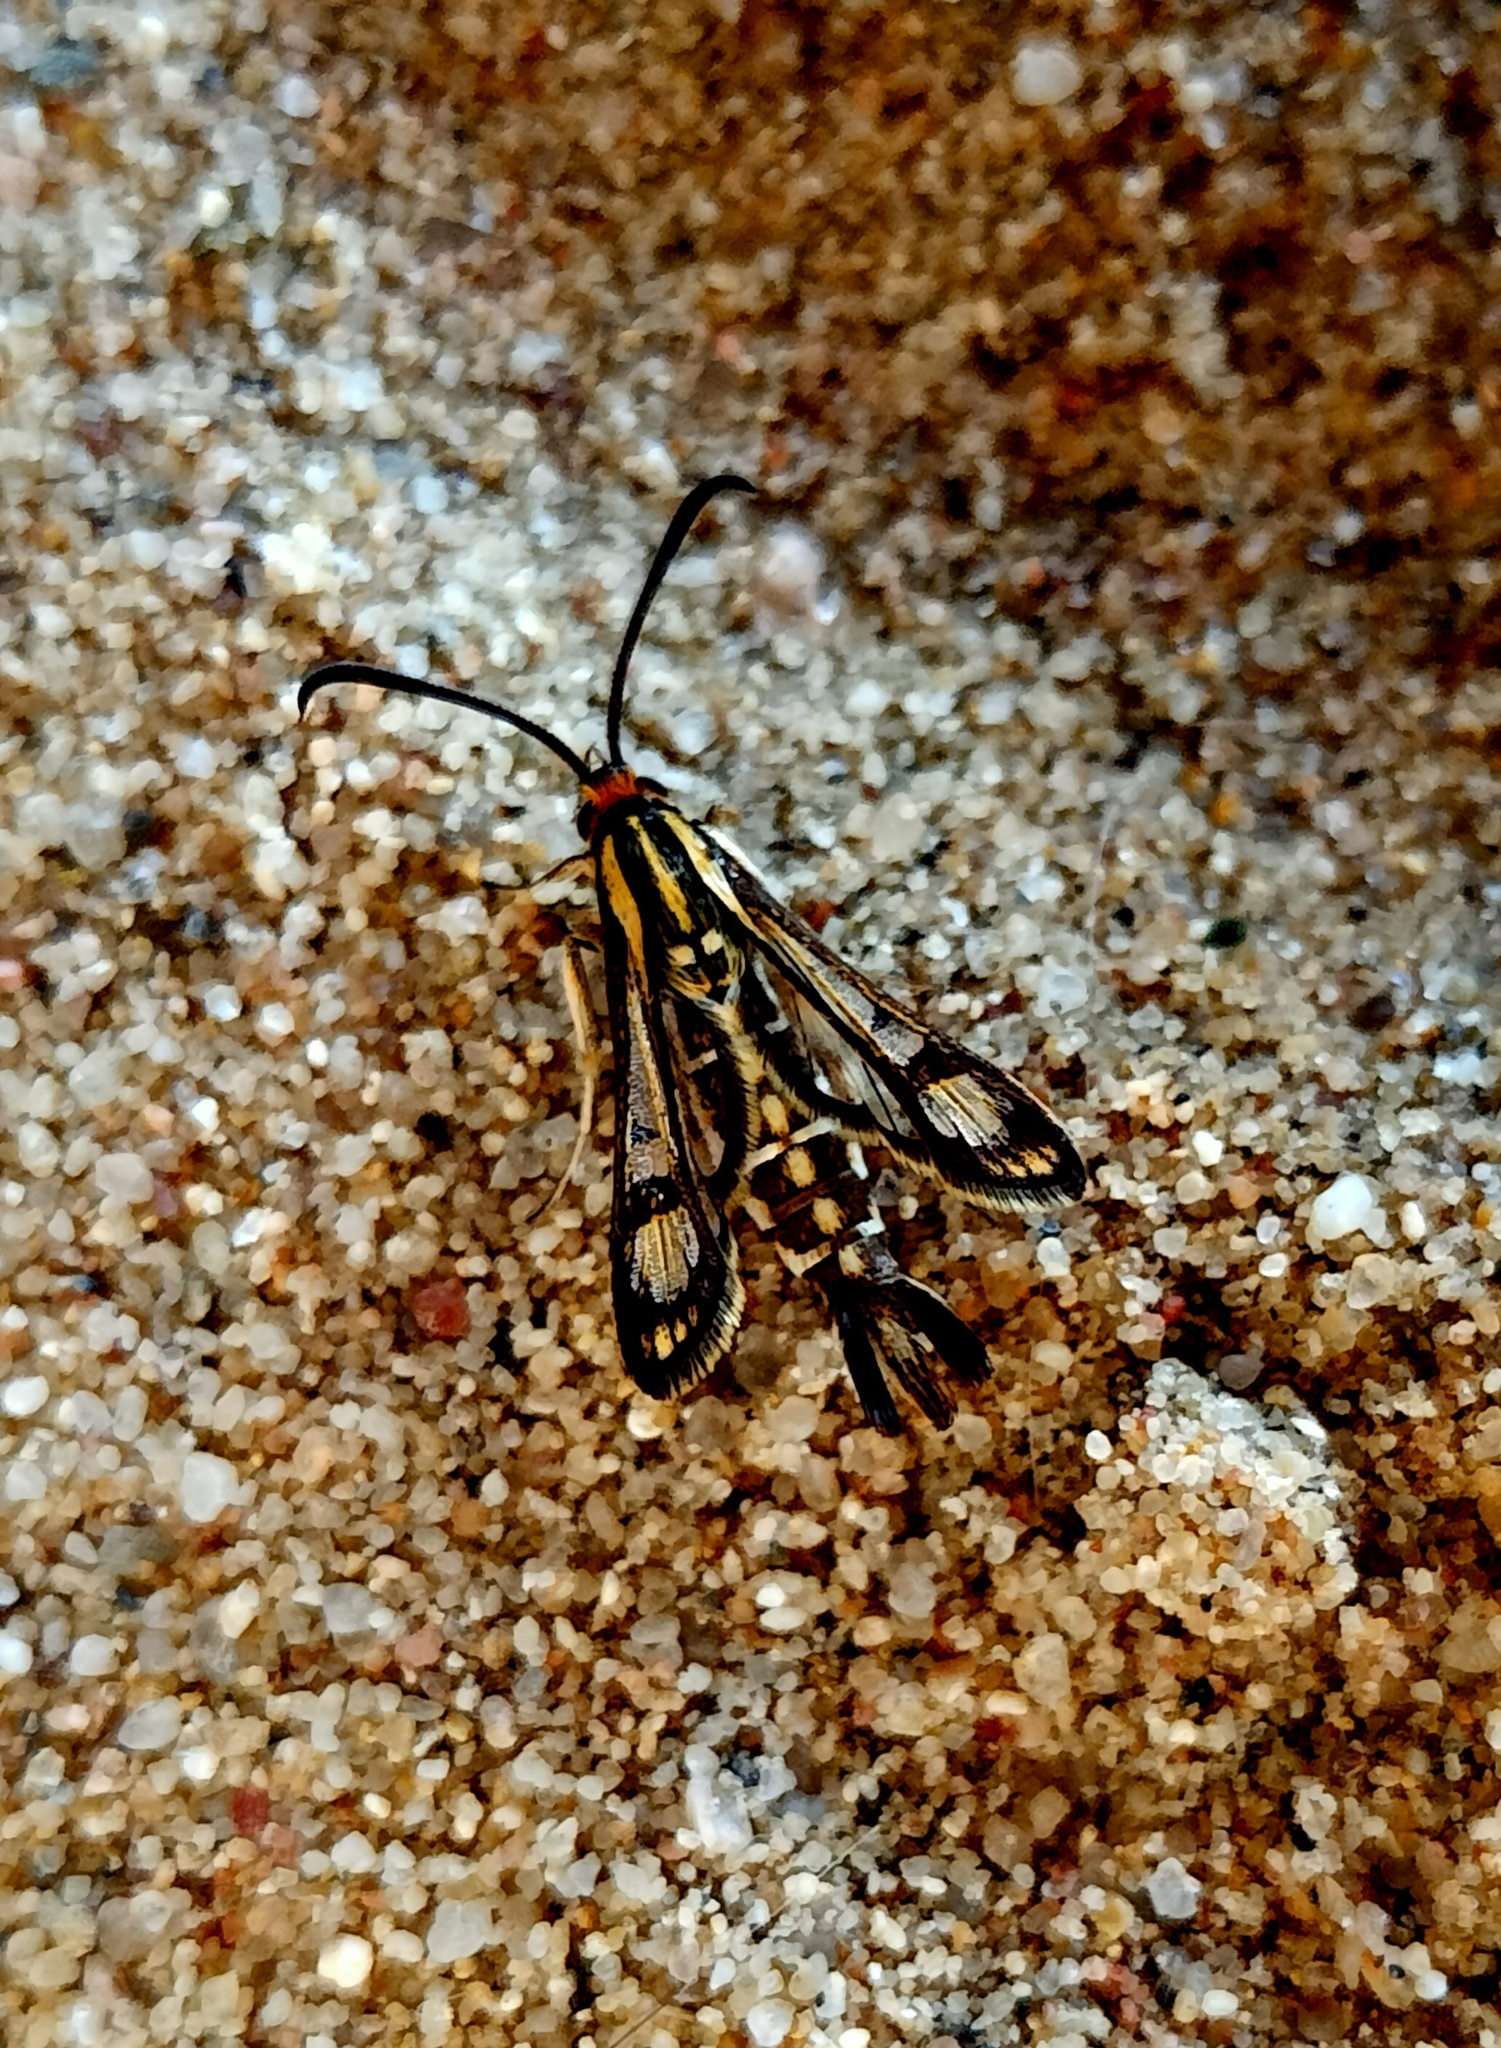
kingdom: Animalia
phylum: Arthropoda
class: Insecta
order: Lepidoptera
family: Sesiidae
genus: Pyropteron
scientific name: Pyropteron triannuliformis
